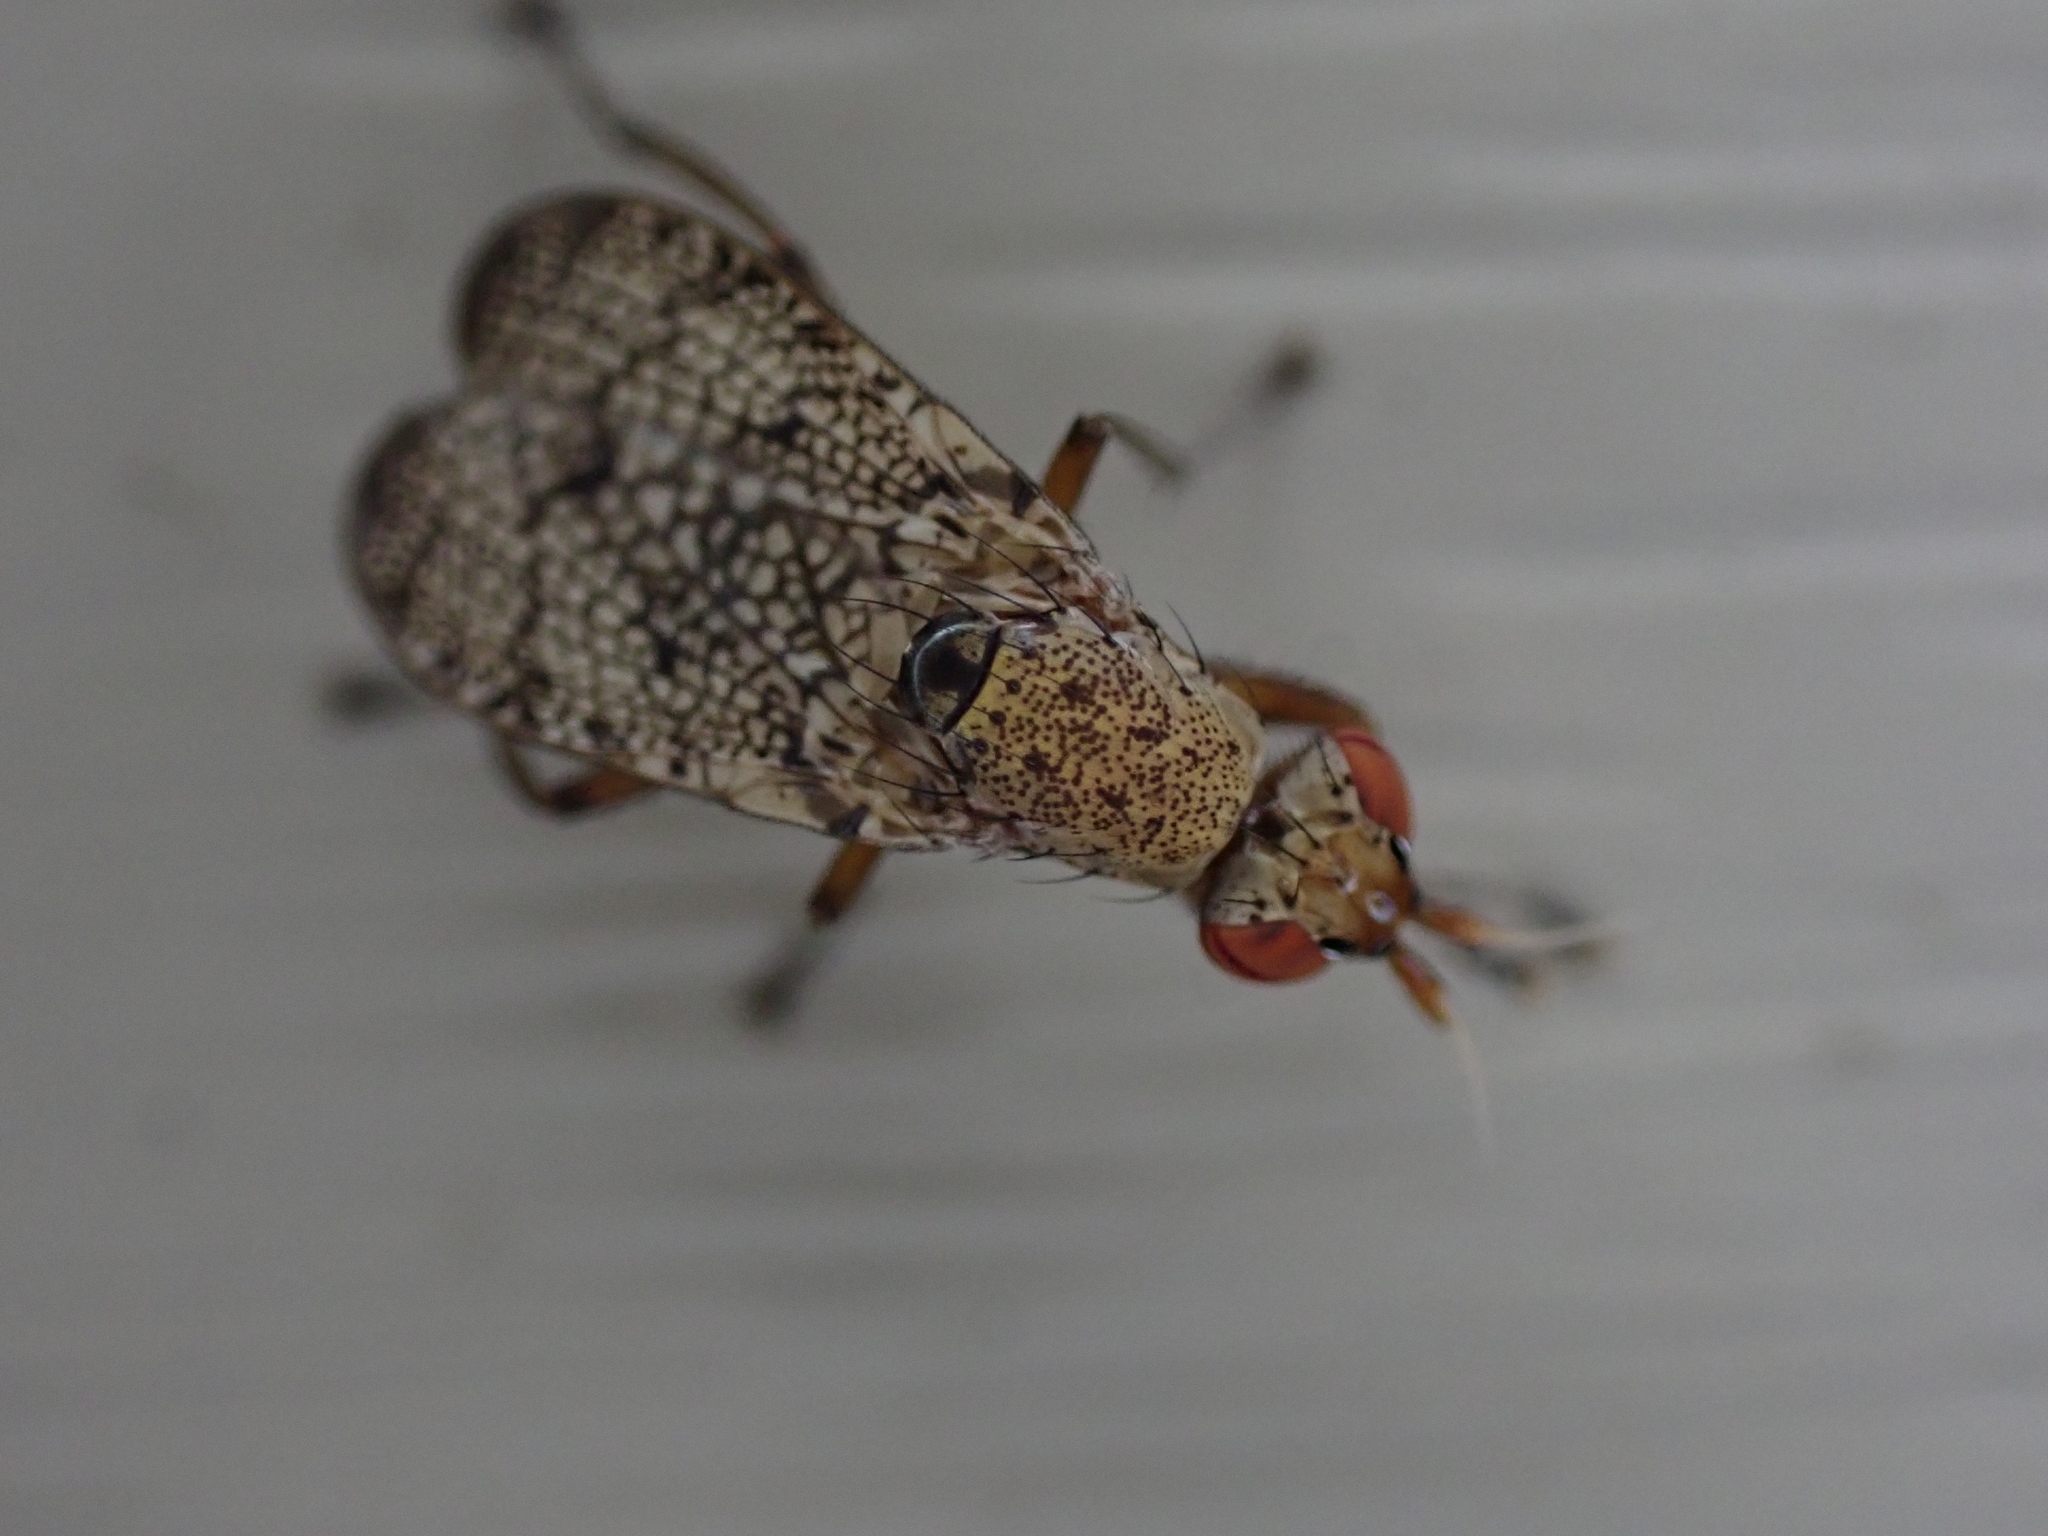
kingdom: Animalia
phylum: Arthropoda
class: Insecta
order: Diptera
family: Sciomyzidae
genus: Euthycera
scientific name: Euthycera flavescens
